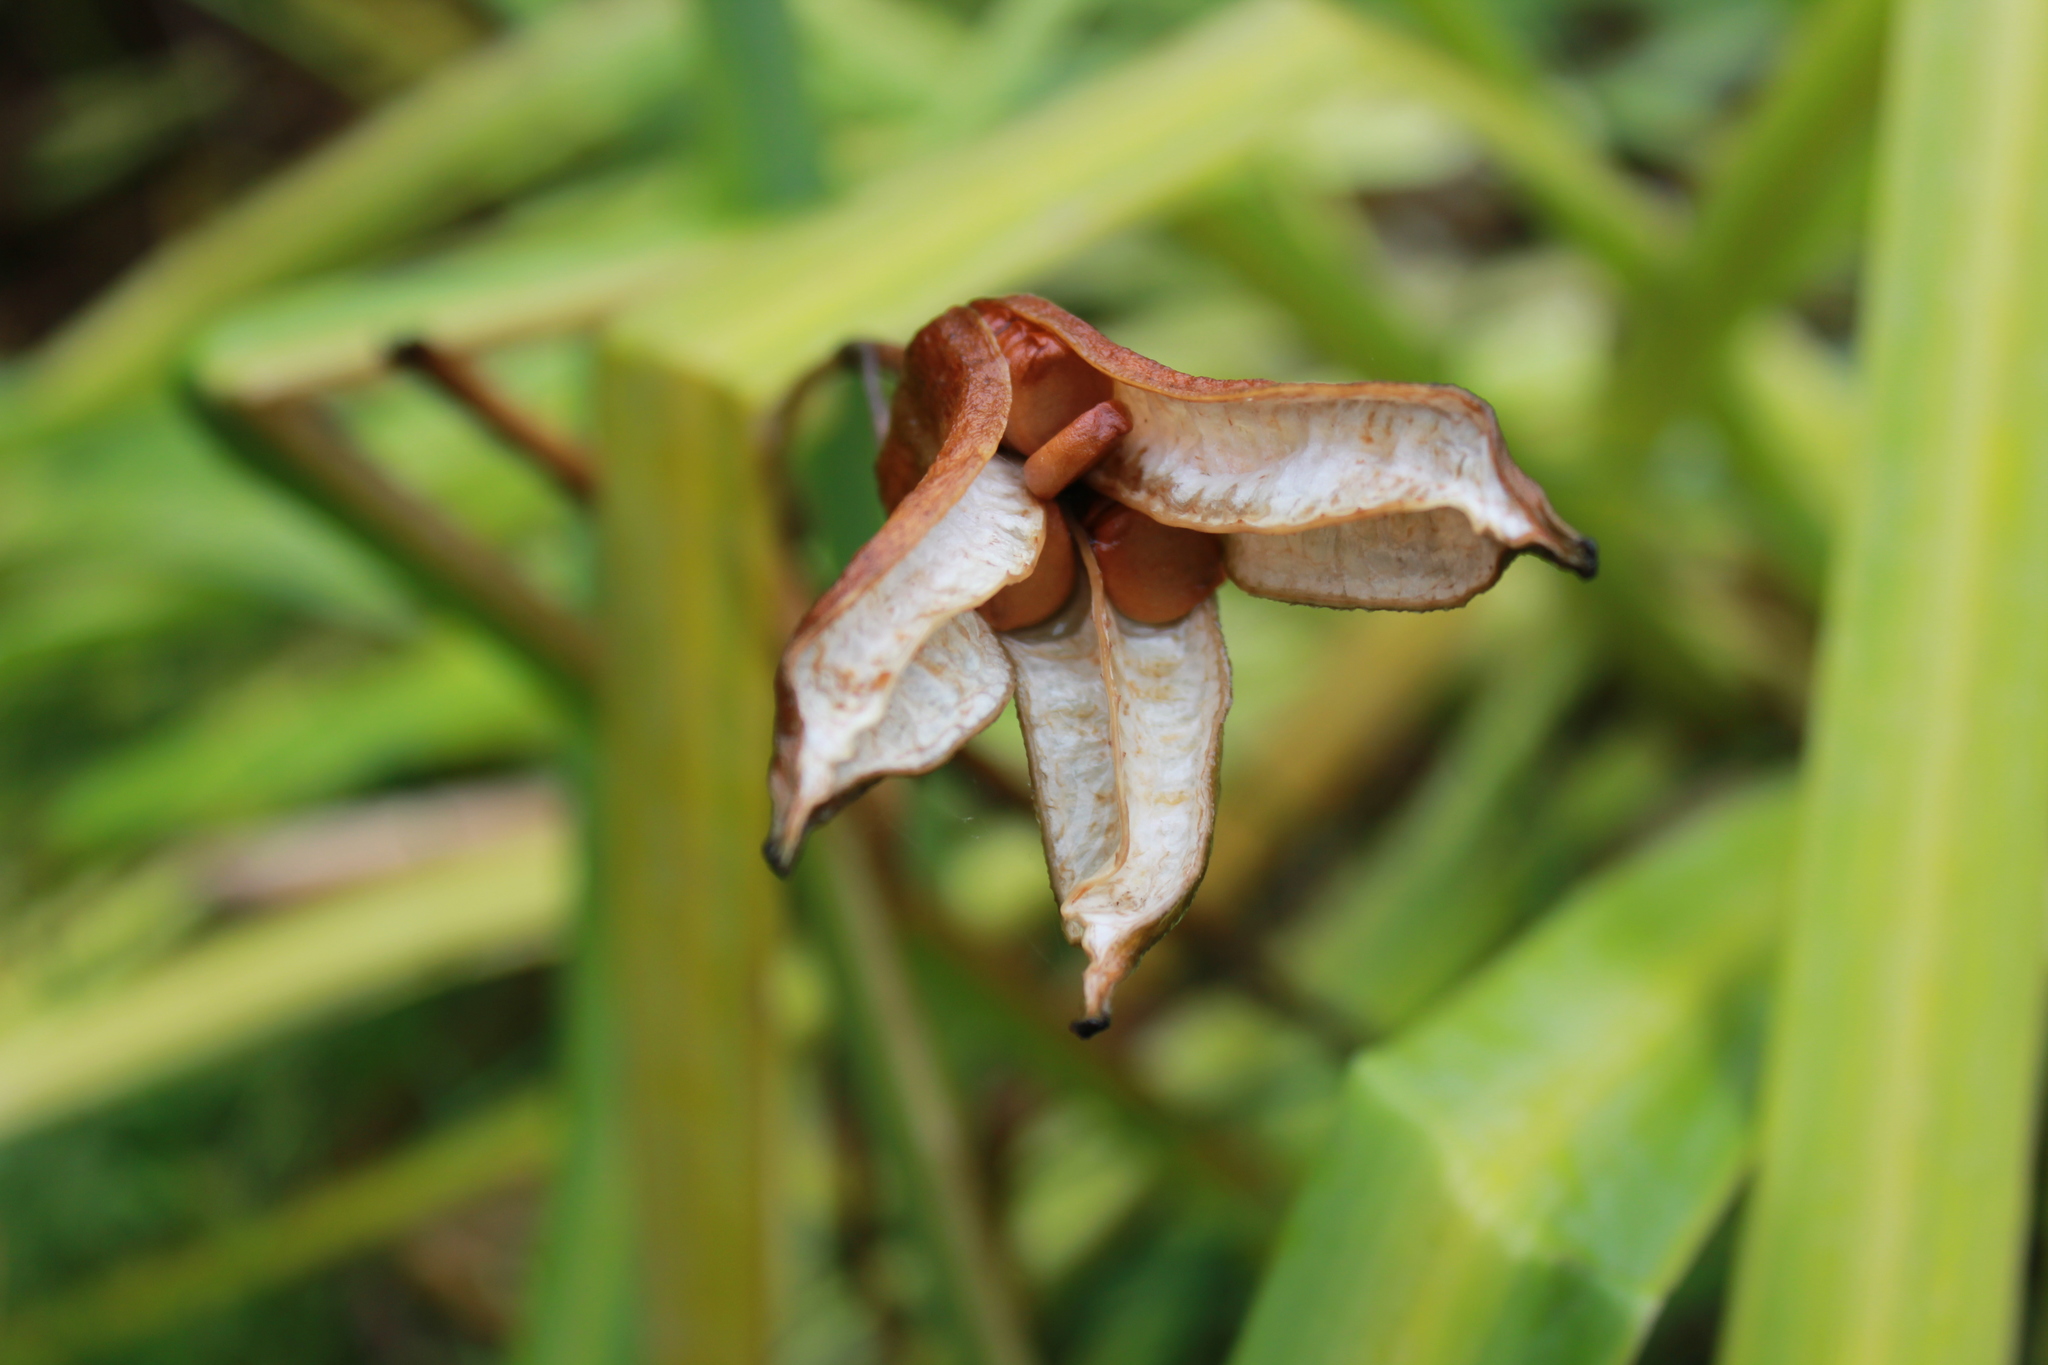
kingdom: Plantae
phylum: Tracheophyta
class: Liliopsida
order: Asparagales
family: Iridaceae
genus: Iris
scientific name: Iris pseudacorus
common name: Yellow flag
